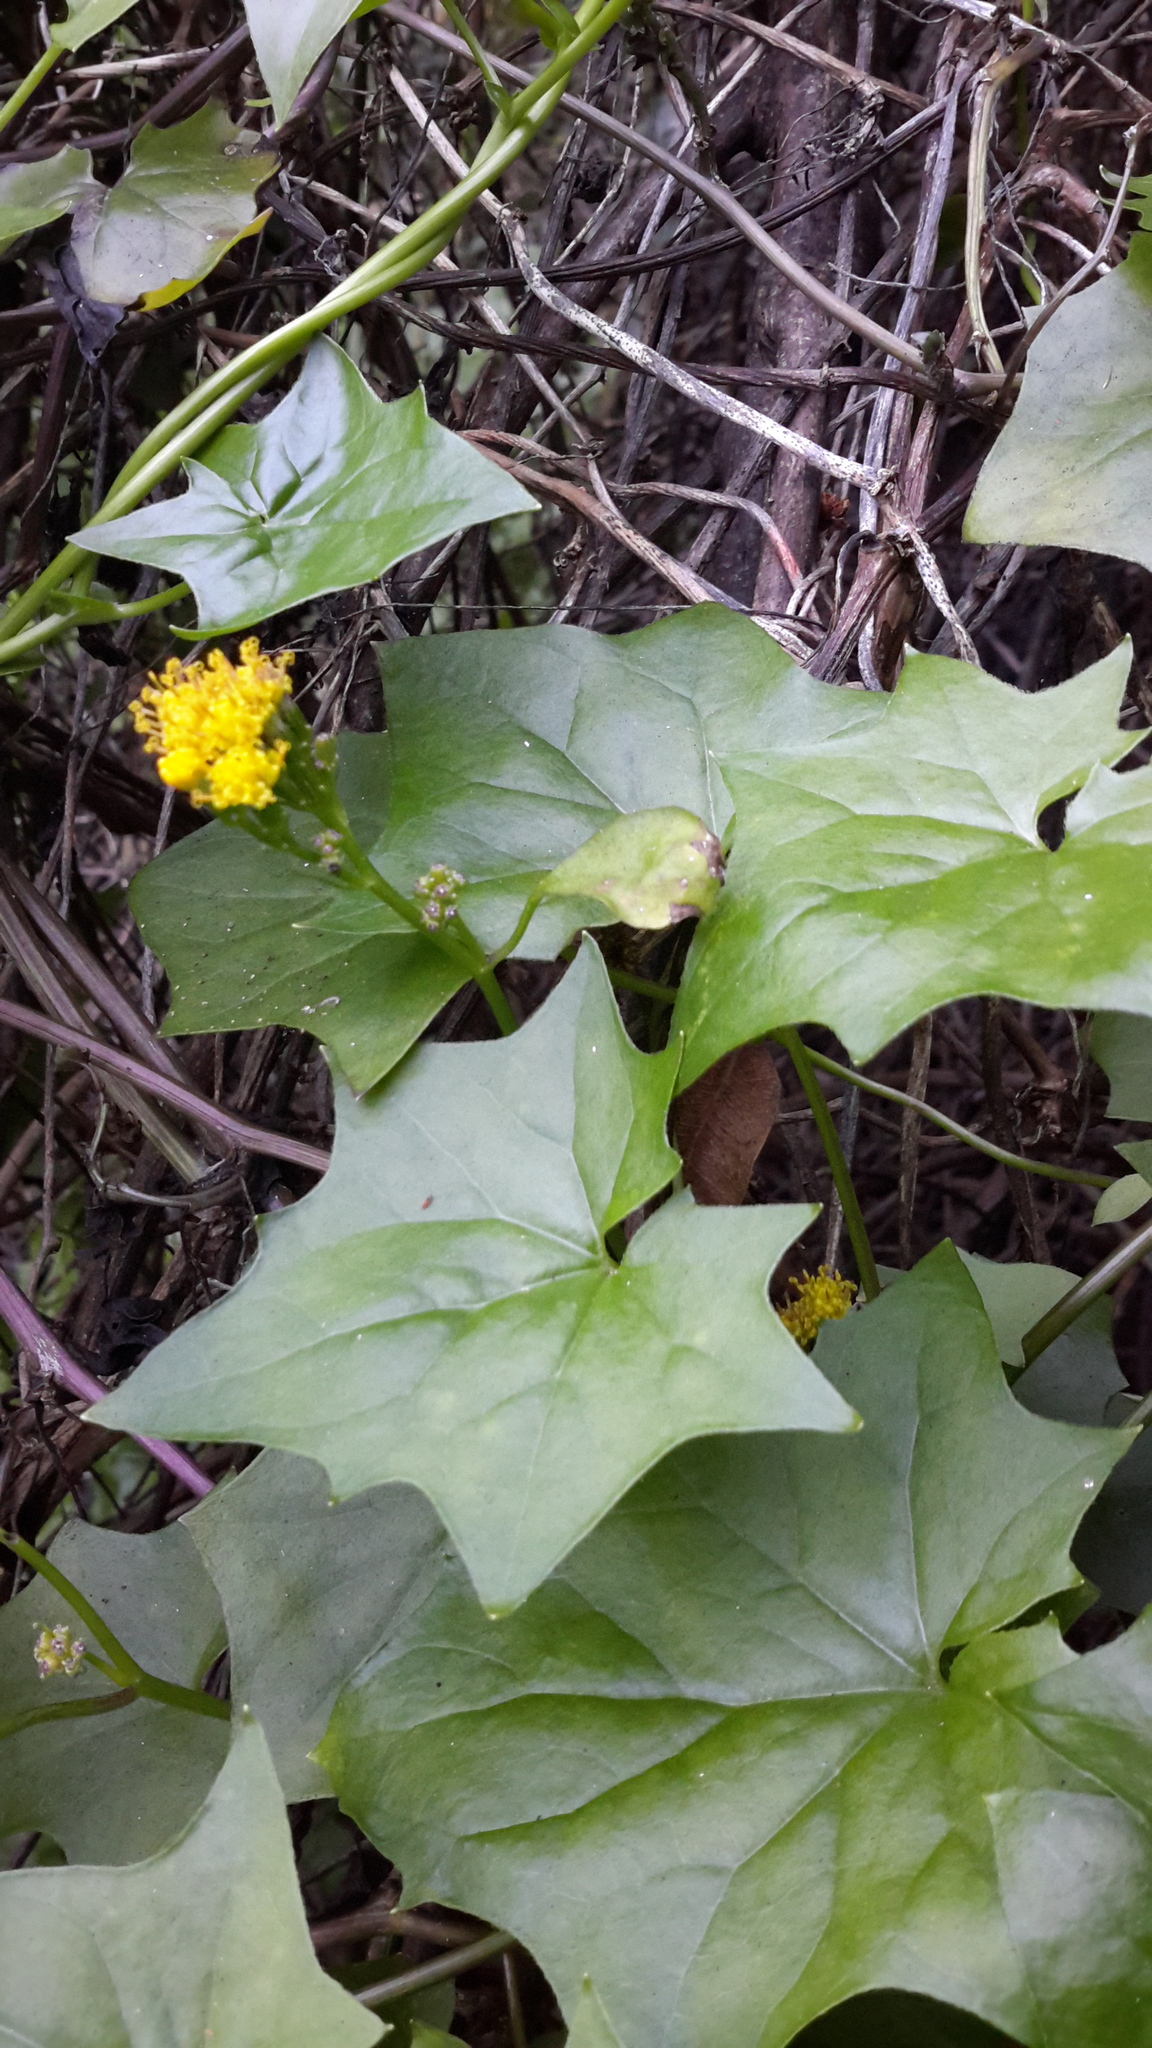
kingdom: Plantae
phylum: Tracheophyta
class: Magnoliopsida
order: Asterales
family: Asteraceae
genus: Delairea
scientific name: Delairea odorata
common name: Cape-ivy
